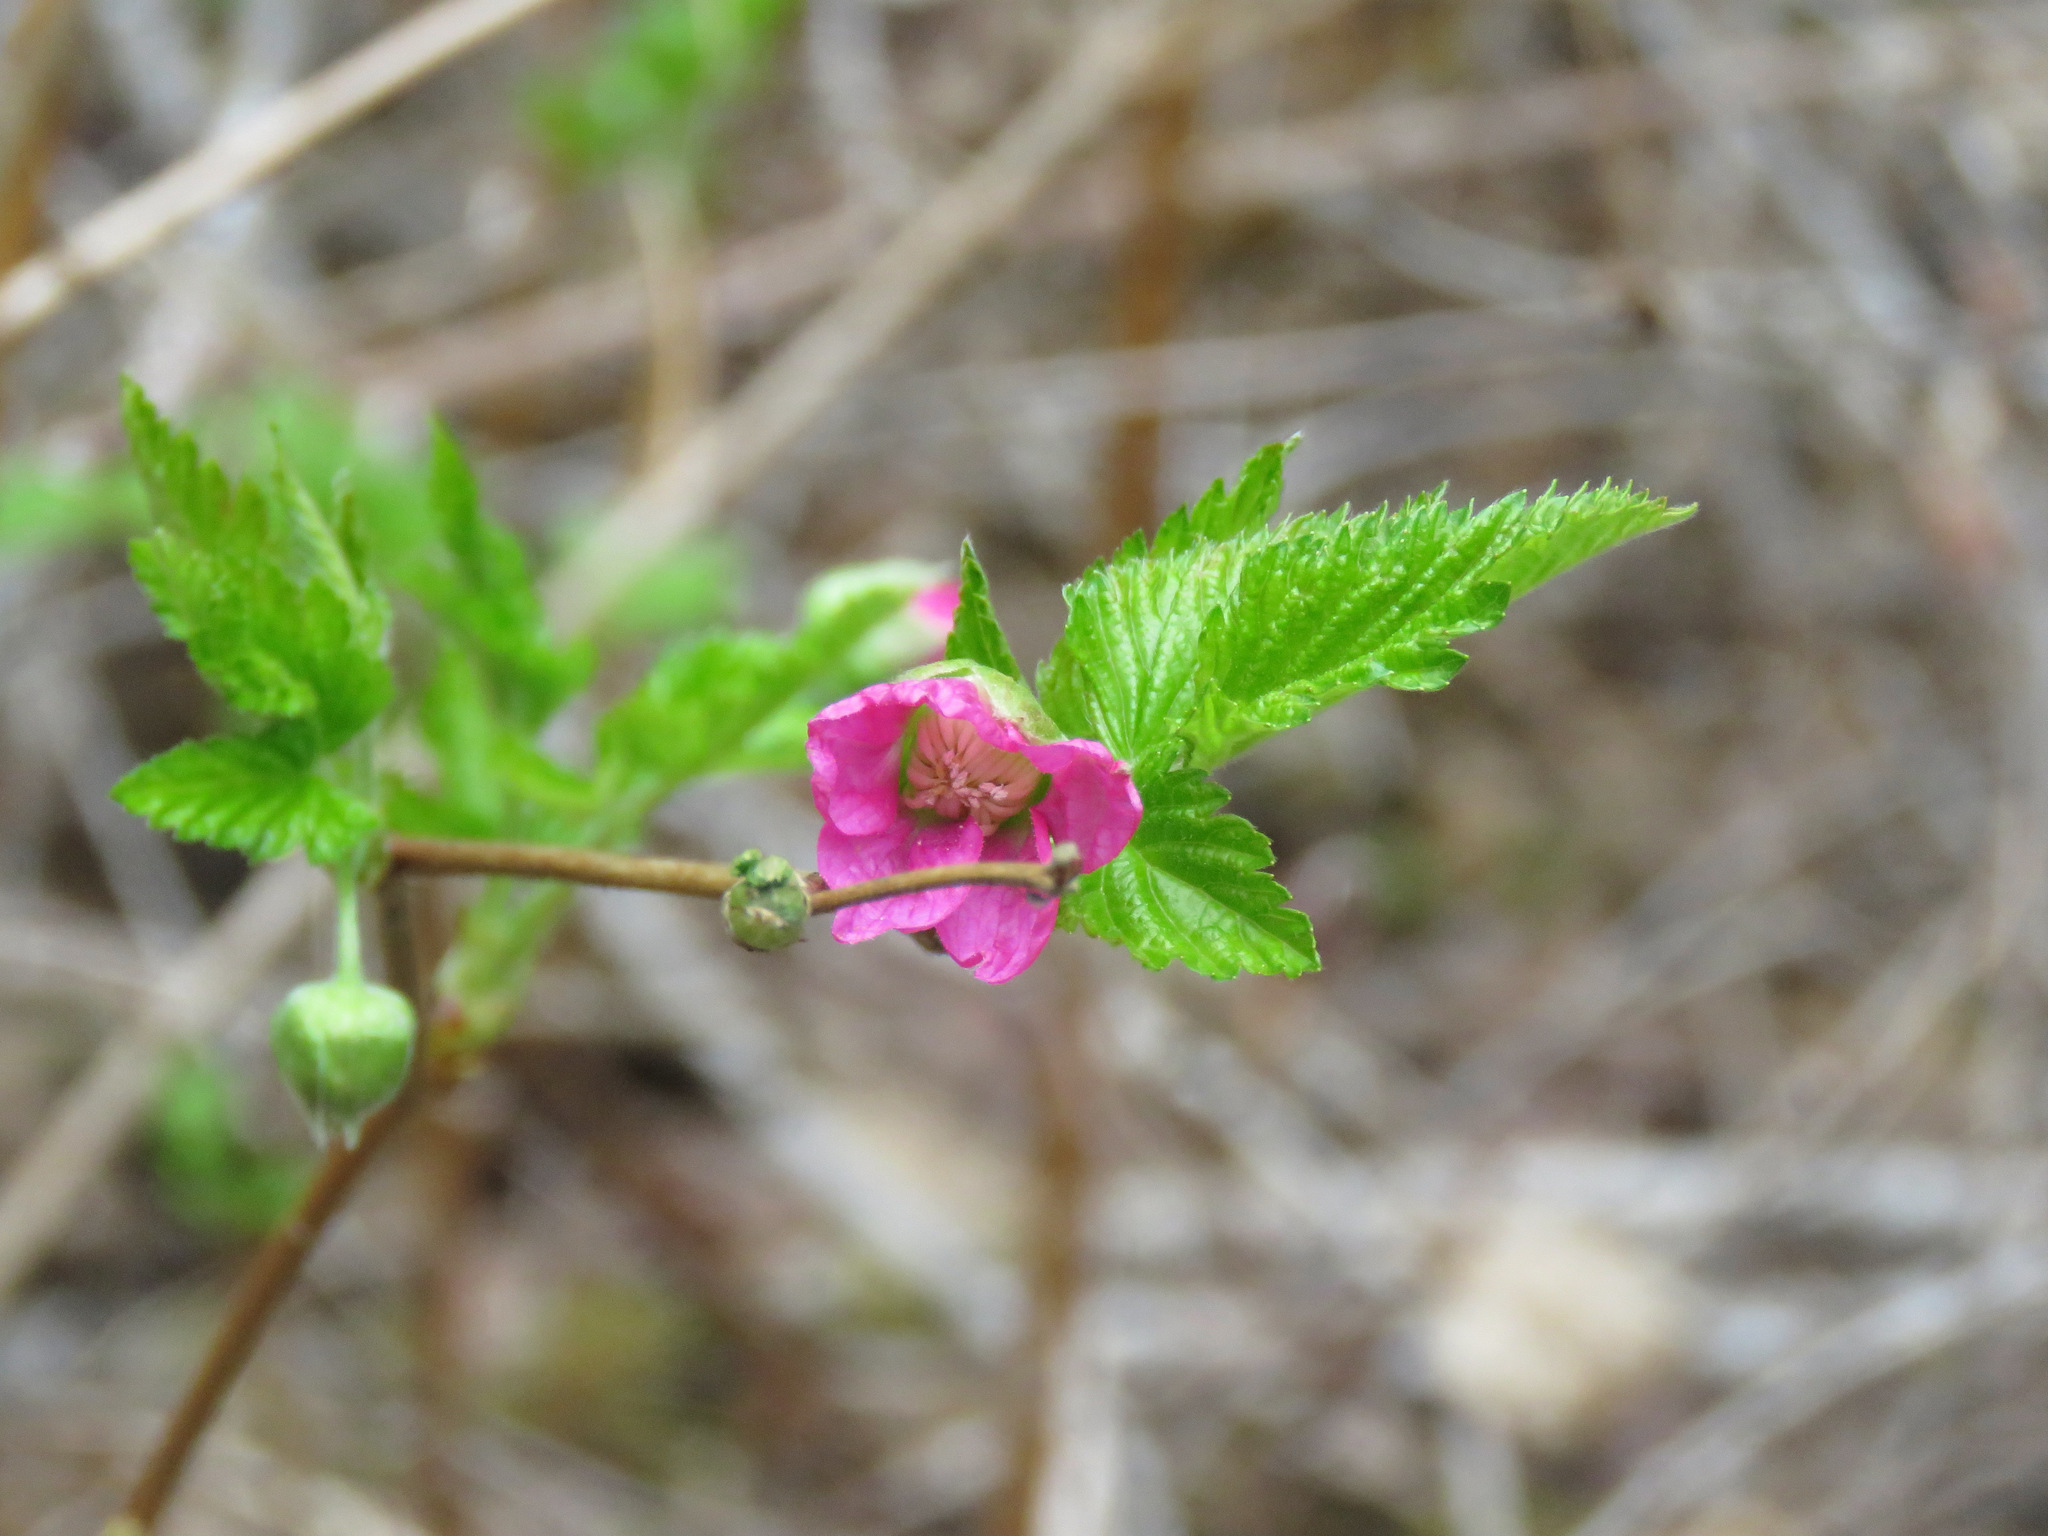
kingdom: Plantae
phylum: Tracheophyta
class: Magnoliopsida
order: Rosales
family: Rosaceae
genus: Rubus
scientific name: Rubus spectabilis
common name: Salmonberry
